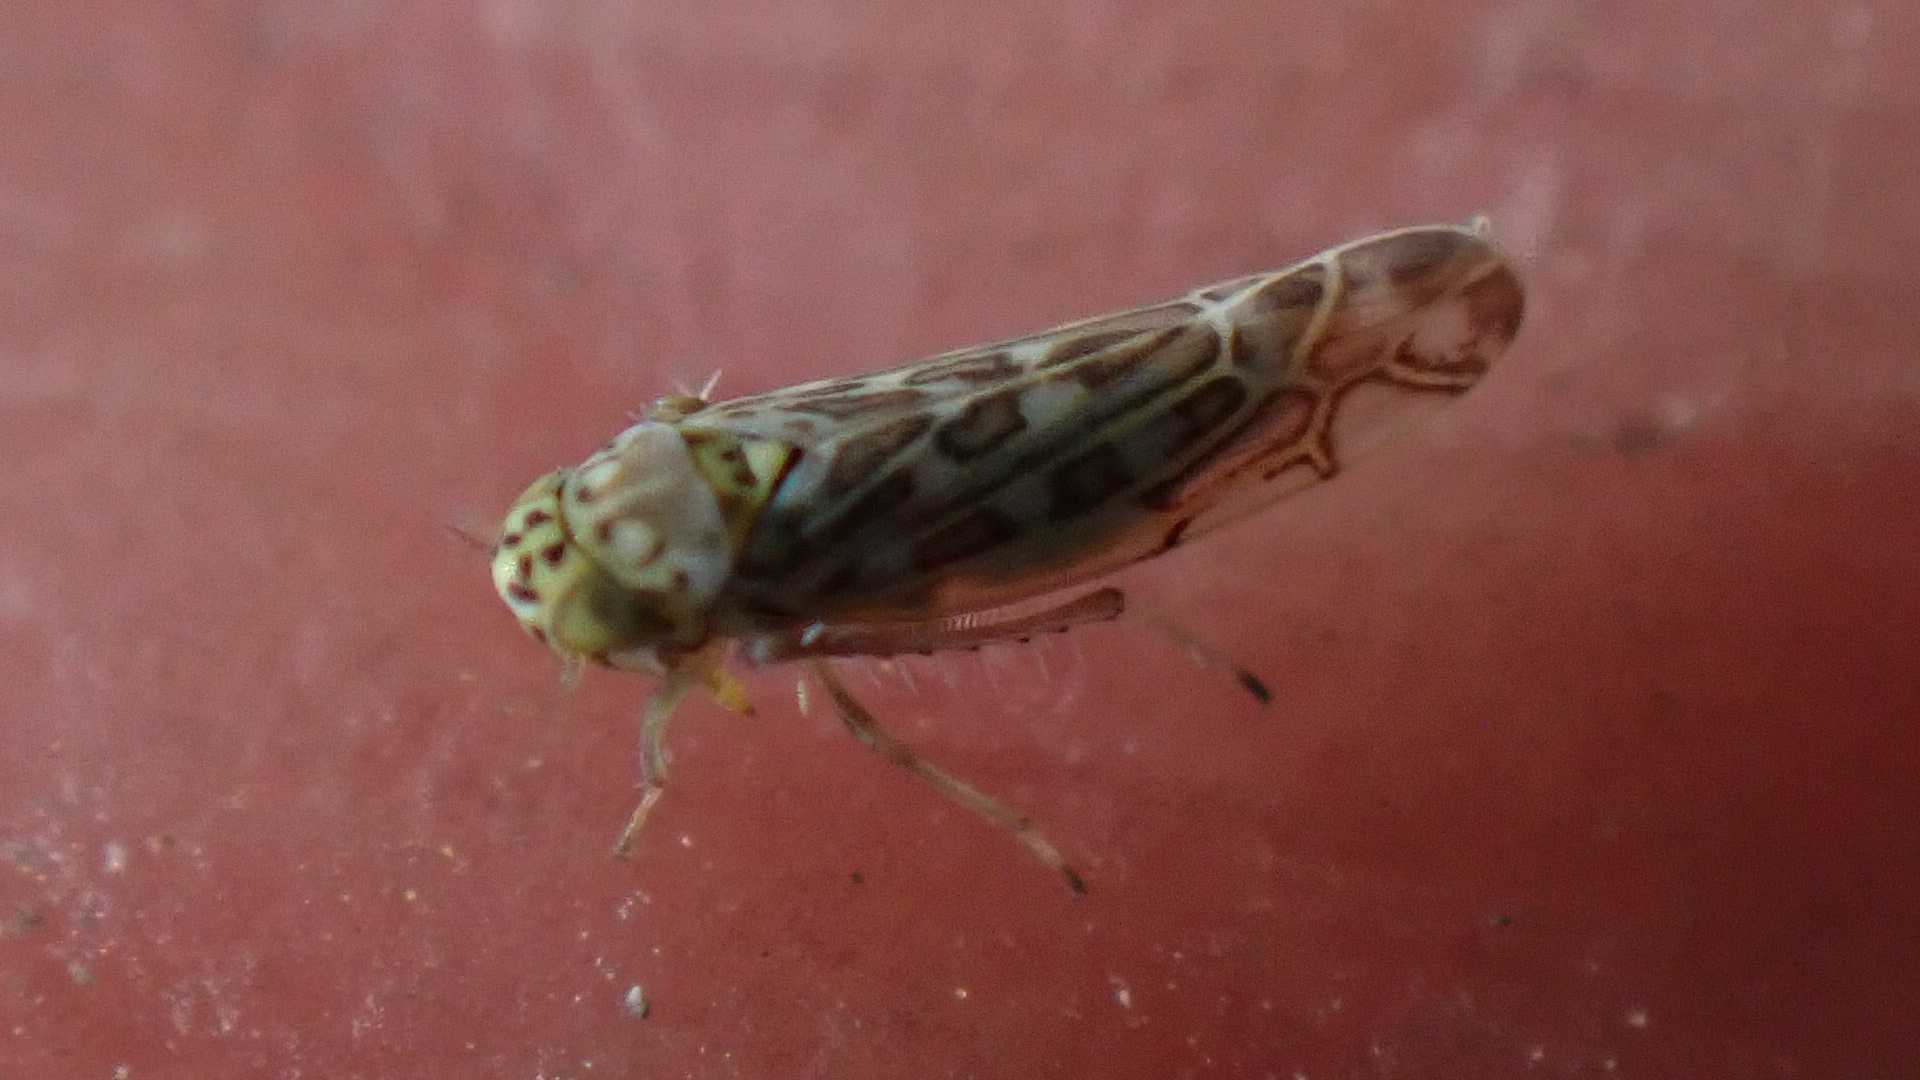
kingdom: Animalia
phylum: Arthropoda
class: Insecta
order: Hemiptera
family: Cicadellidae
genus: Eupteryx
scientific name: Eupteryx decemnotata
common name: Ligurian leafhopper
